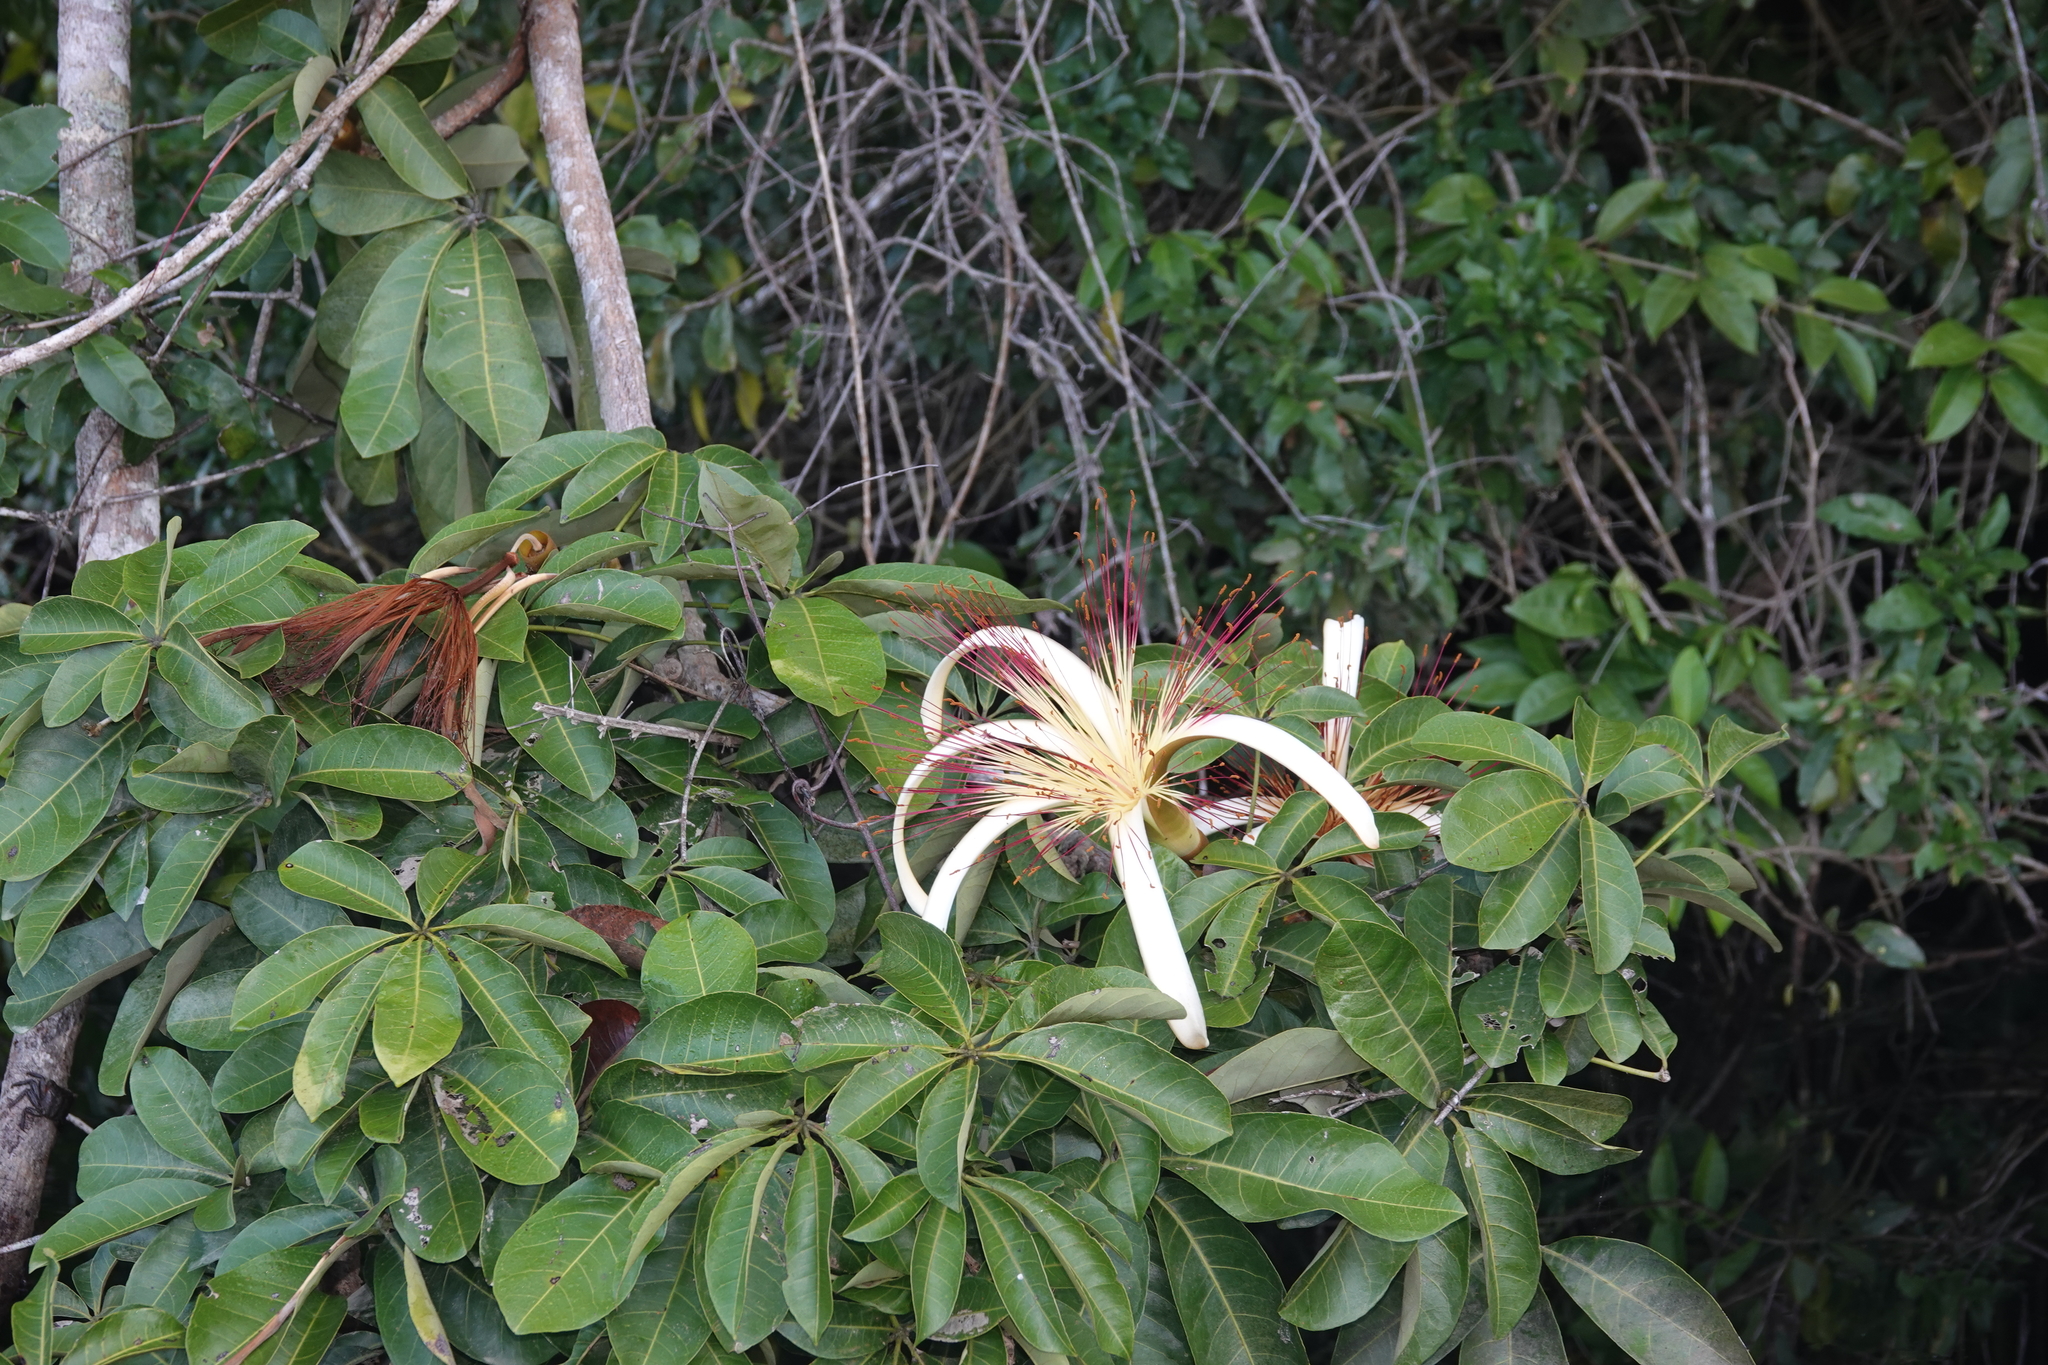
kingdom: Plantae
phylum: Tracheophyta
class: Magnoliopsida
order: Malvales
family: Malvaceae
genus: Pachira
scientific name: Pachira aquatica
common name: Provision-tree
